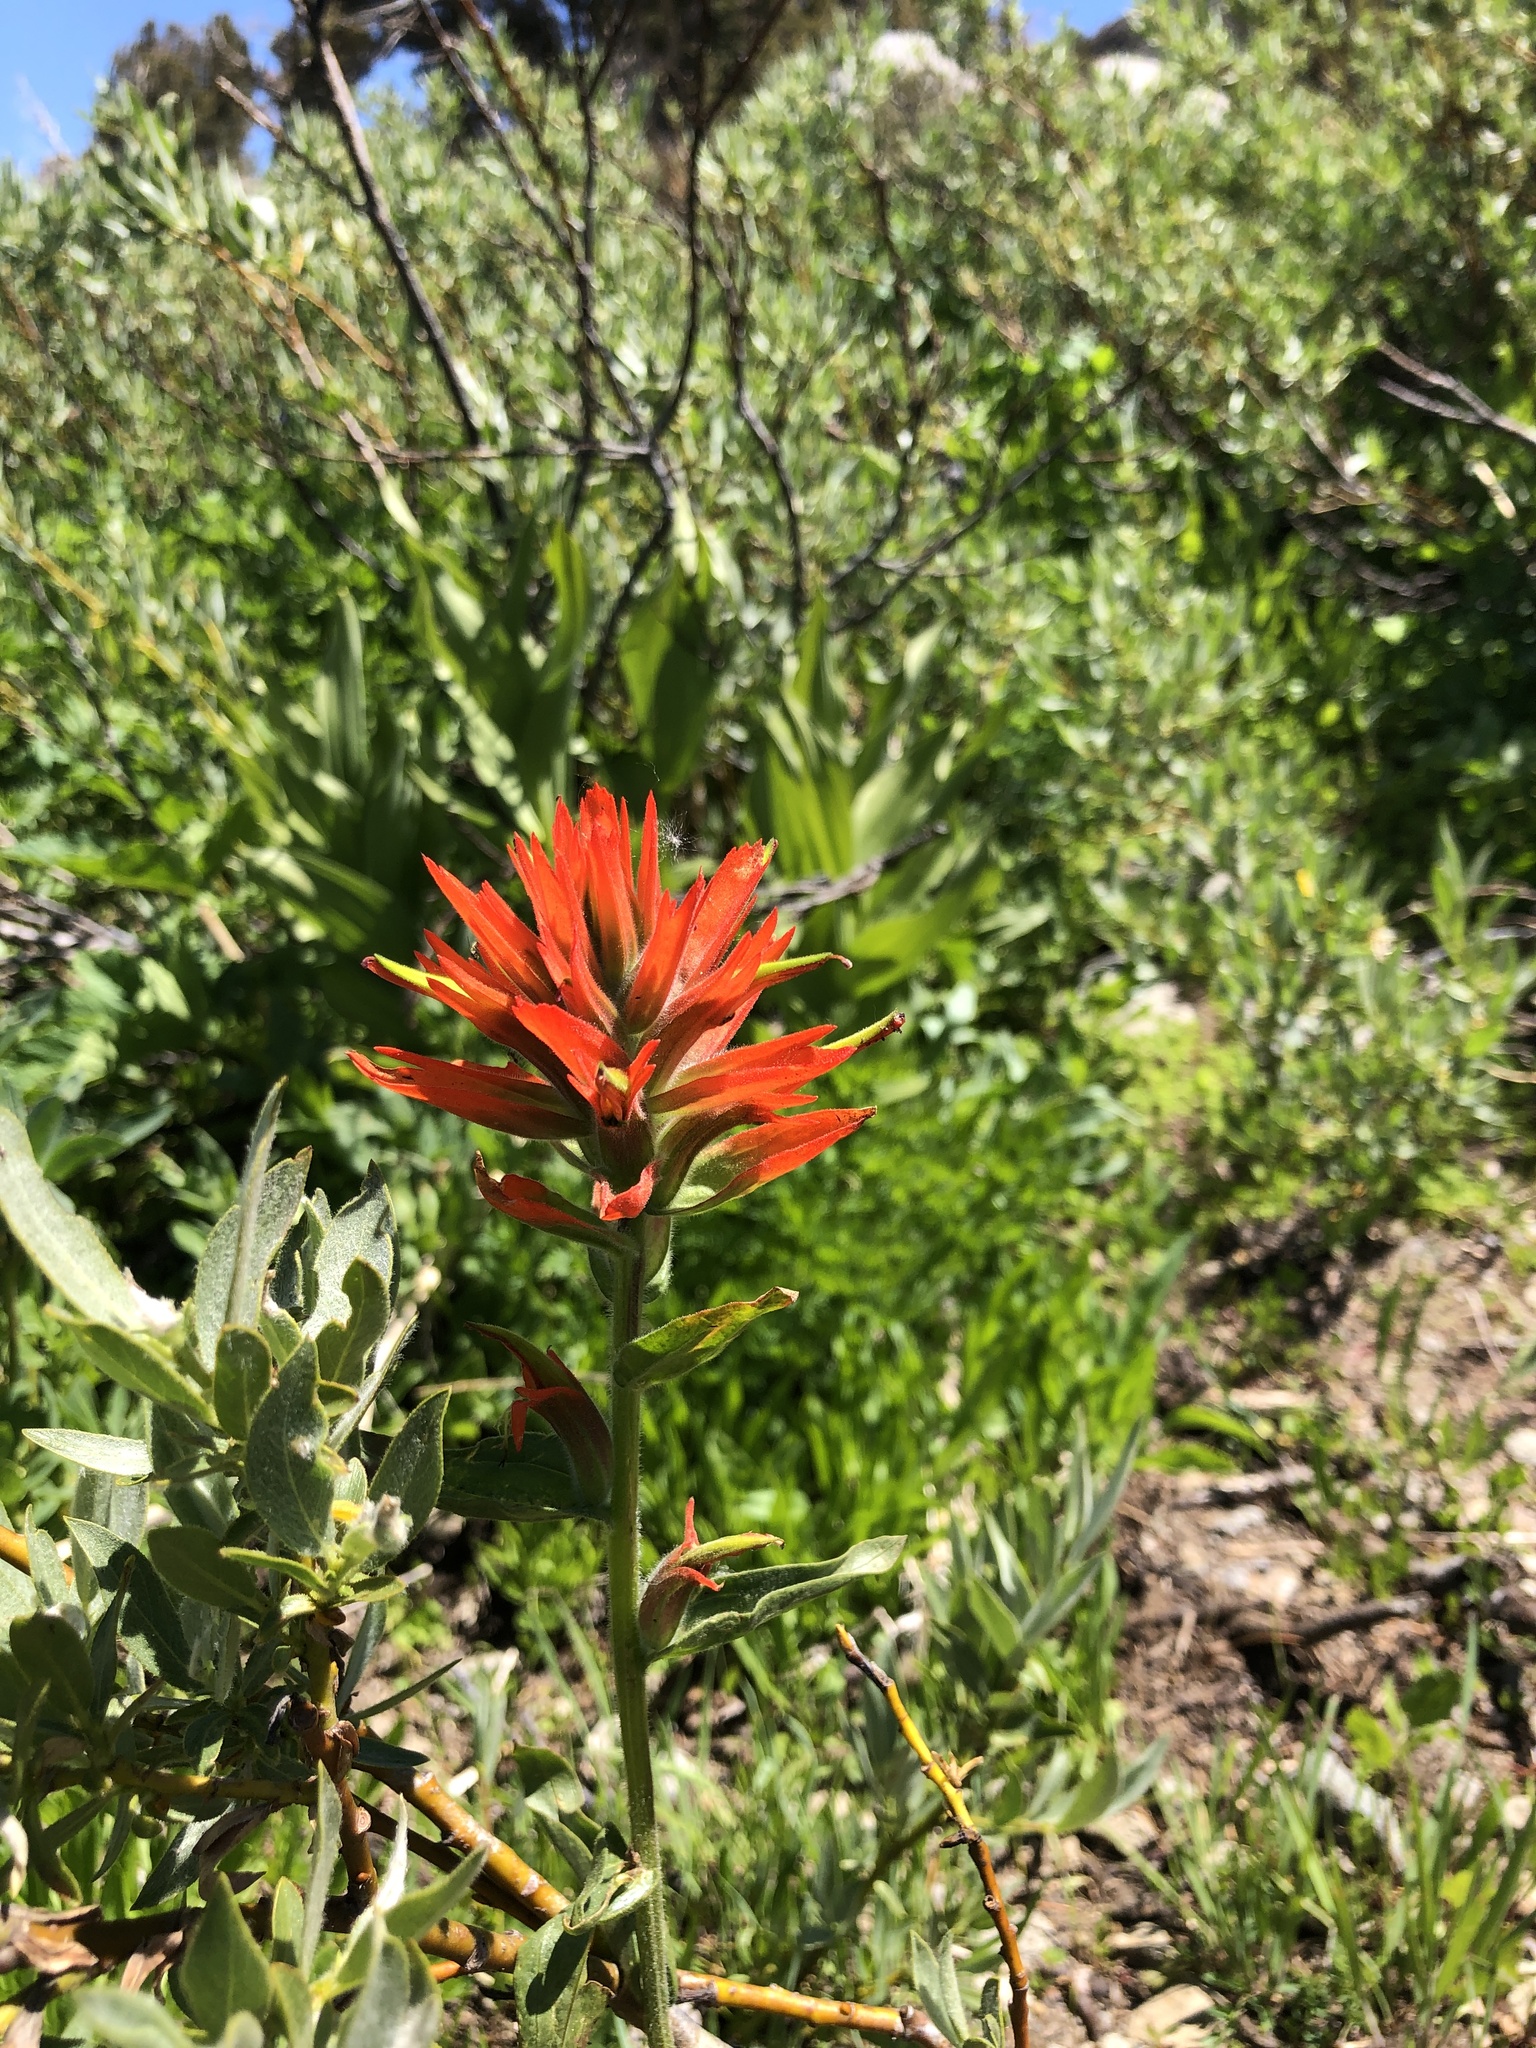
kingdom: Plantae
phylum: Tracheophyta
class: Magnoliopsida
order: Lamiales
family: Orobanchaceae
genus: Castilleja
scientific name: Castilleja miniata
